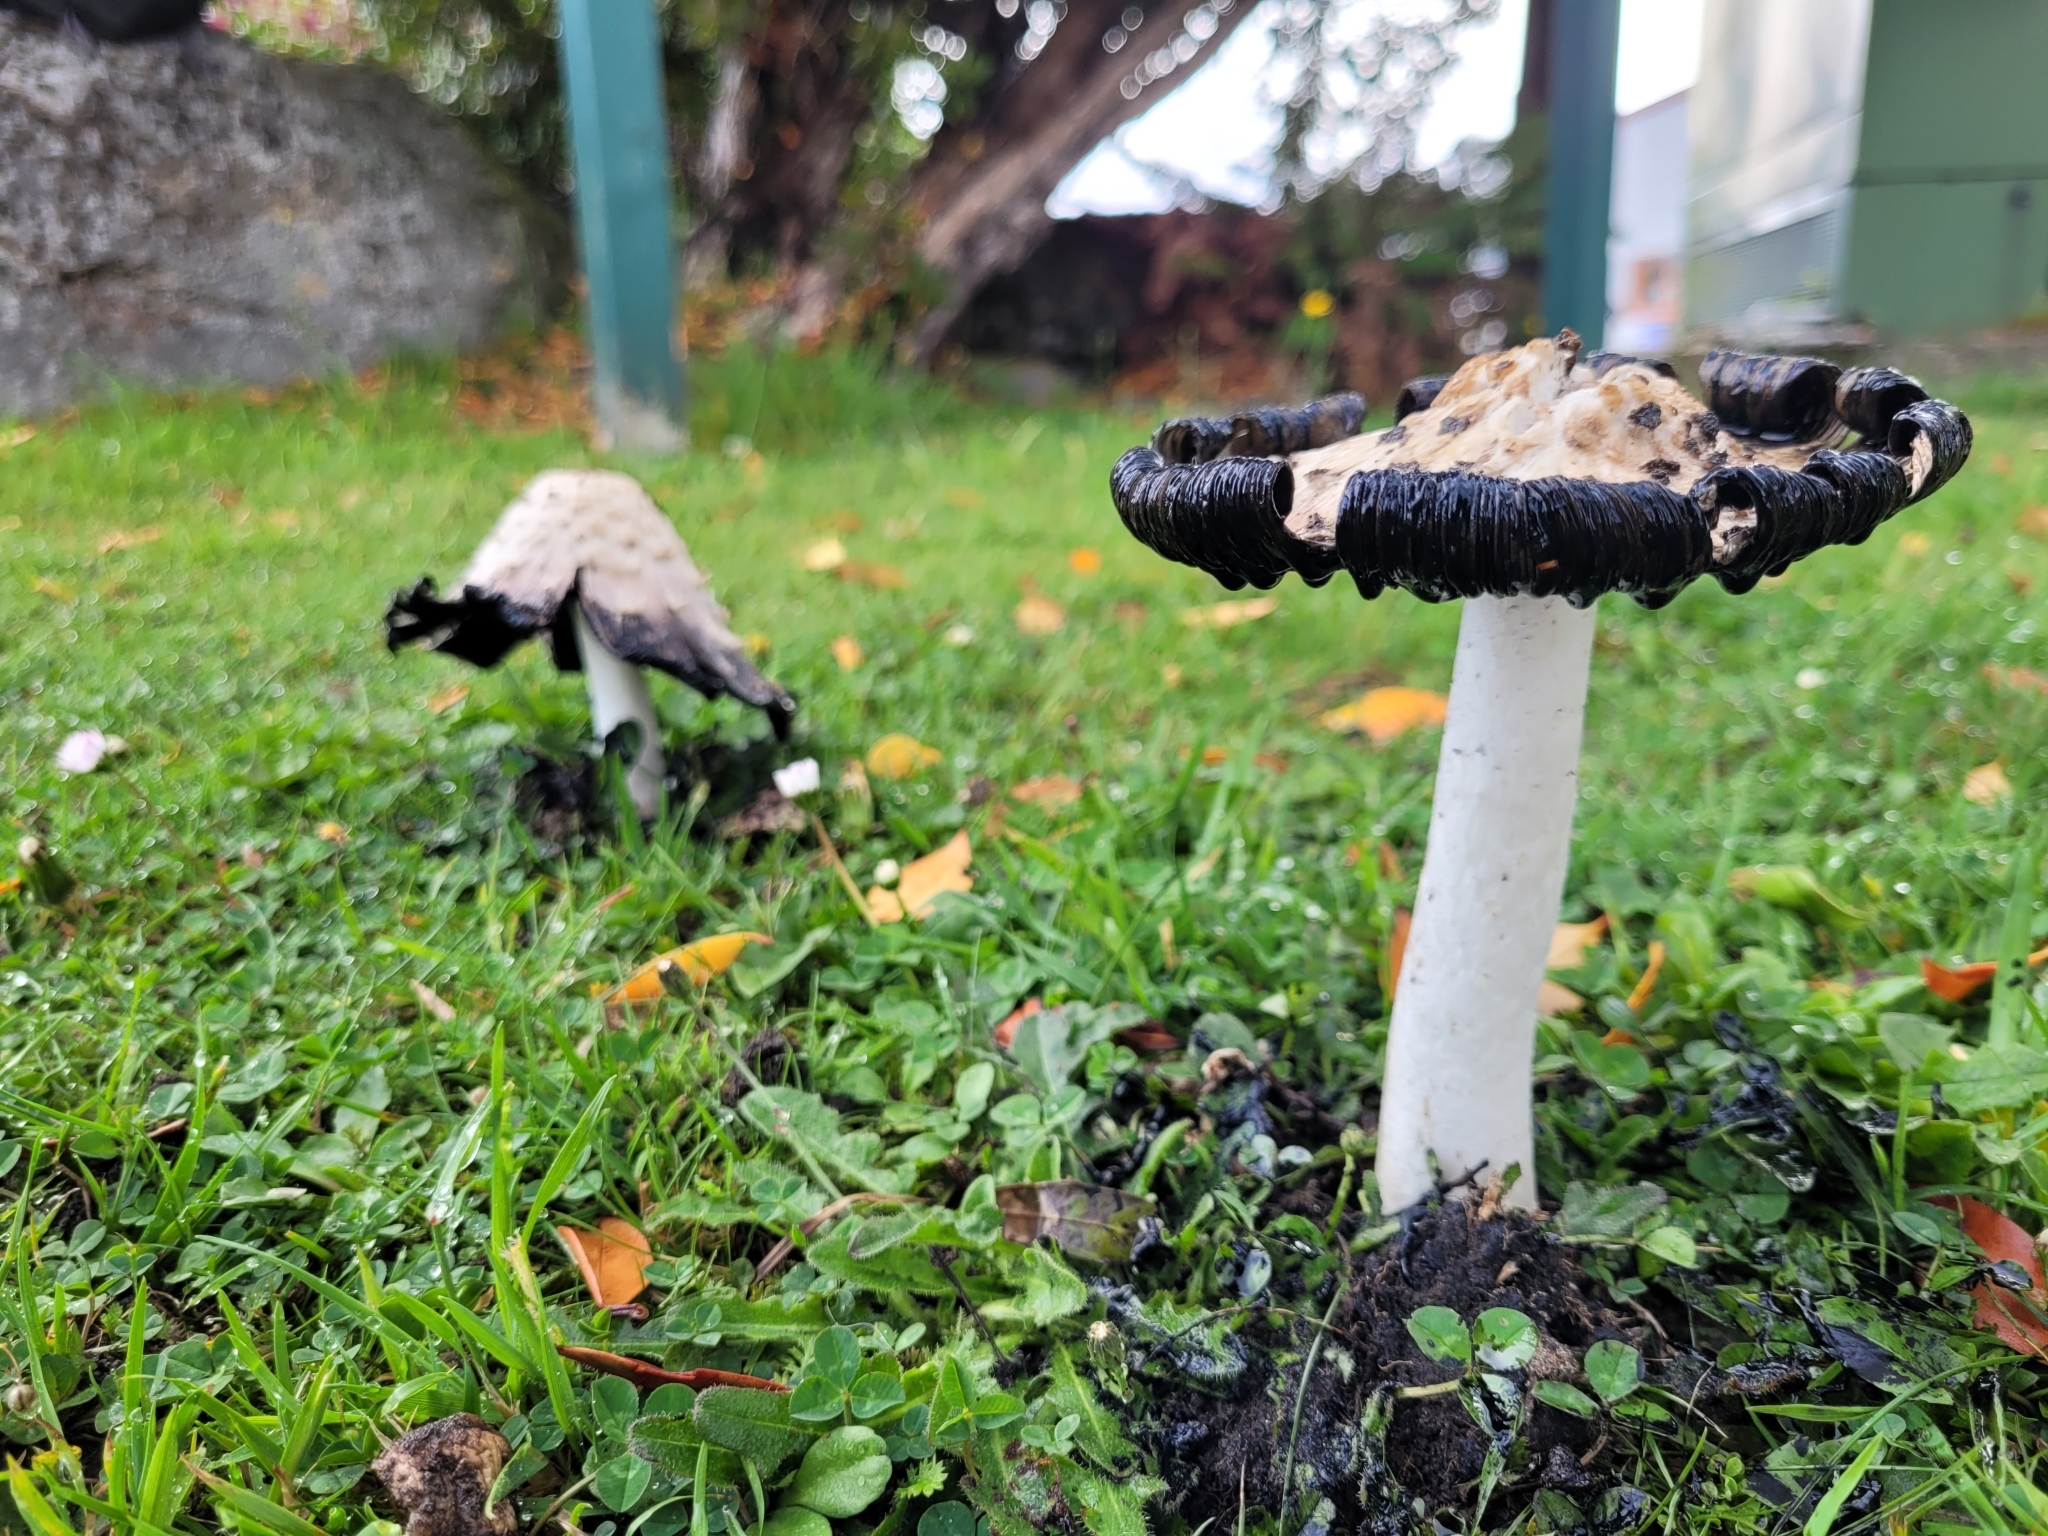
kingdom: Fungi
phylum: Basidiomycota
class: Agaricomycetes
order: Agaricales
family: Agaricaceae
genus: Coprinus
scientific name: Coprinus comatus
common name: Lawyer's wig
